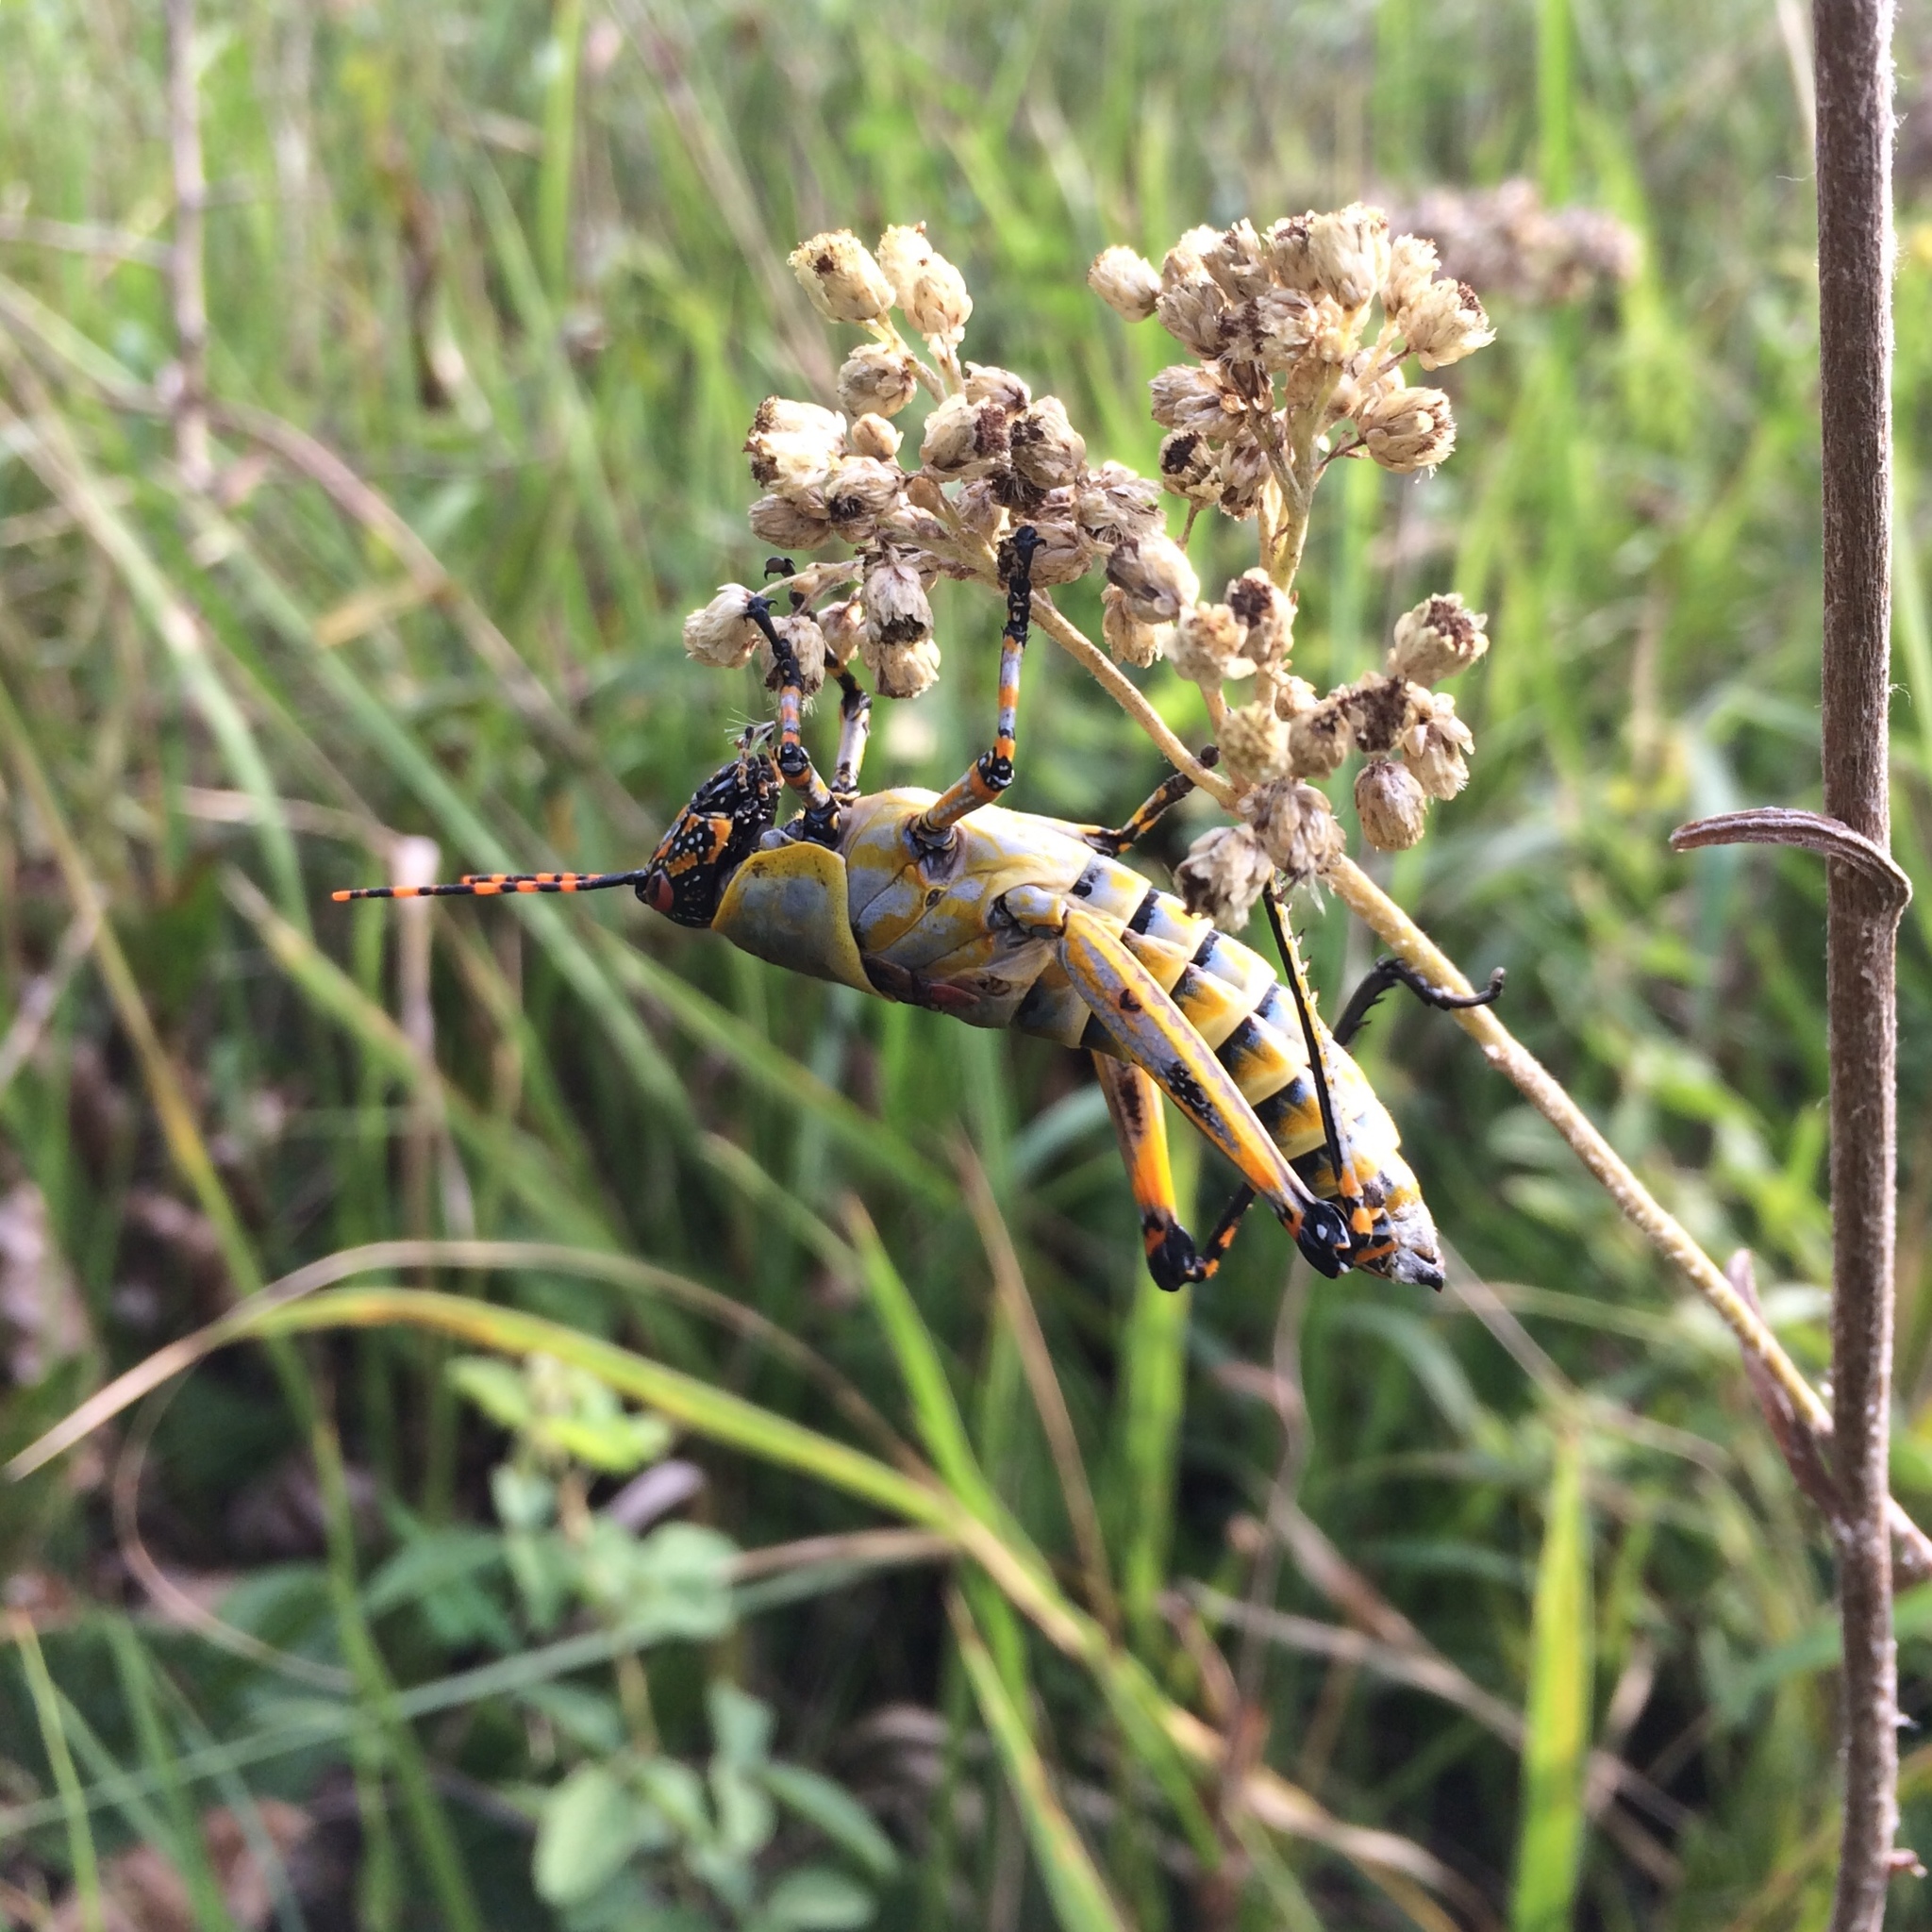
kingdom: Animalia
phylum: Arthropoda
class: Insecta
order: Orthoptera
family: Pyrgomorphidae
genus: Zonocerus
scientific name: Zonocerus elegans
